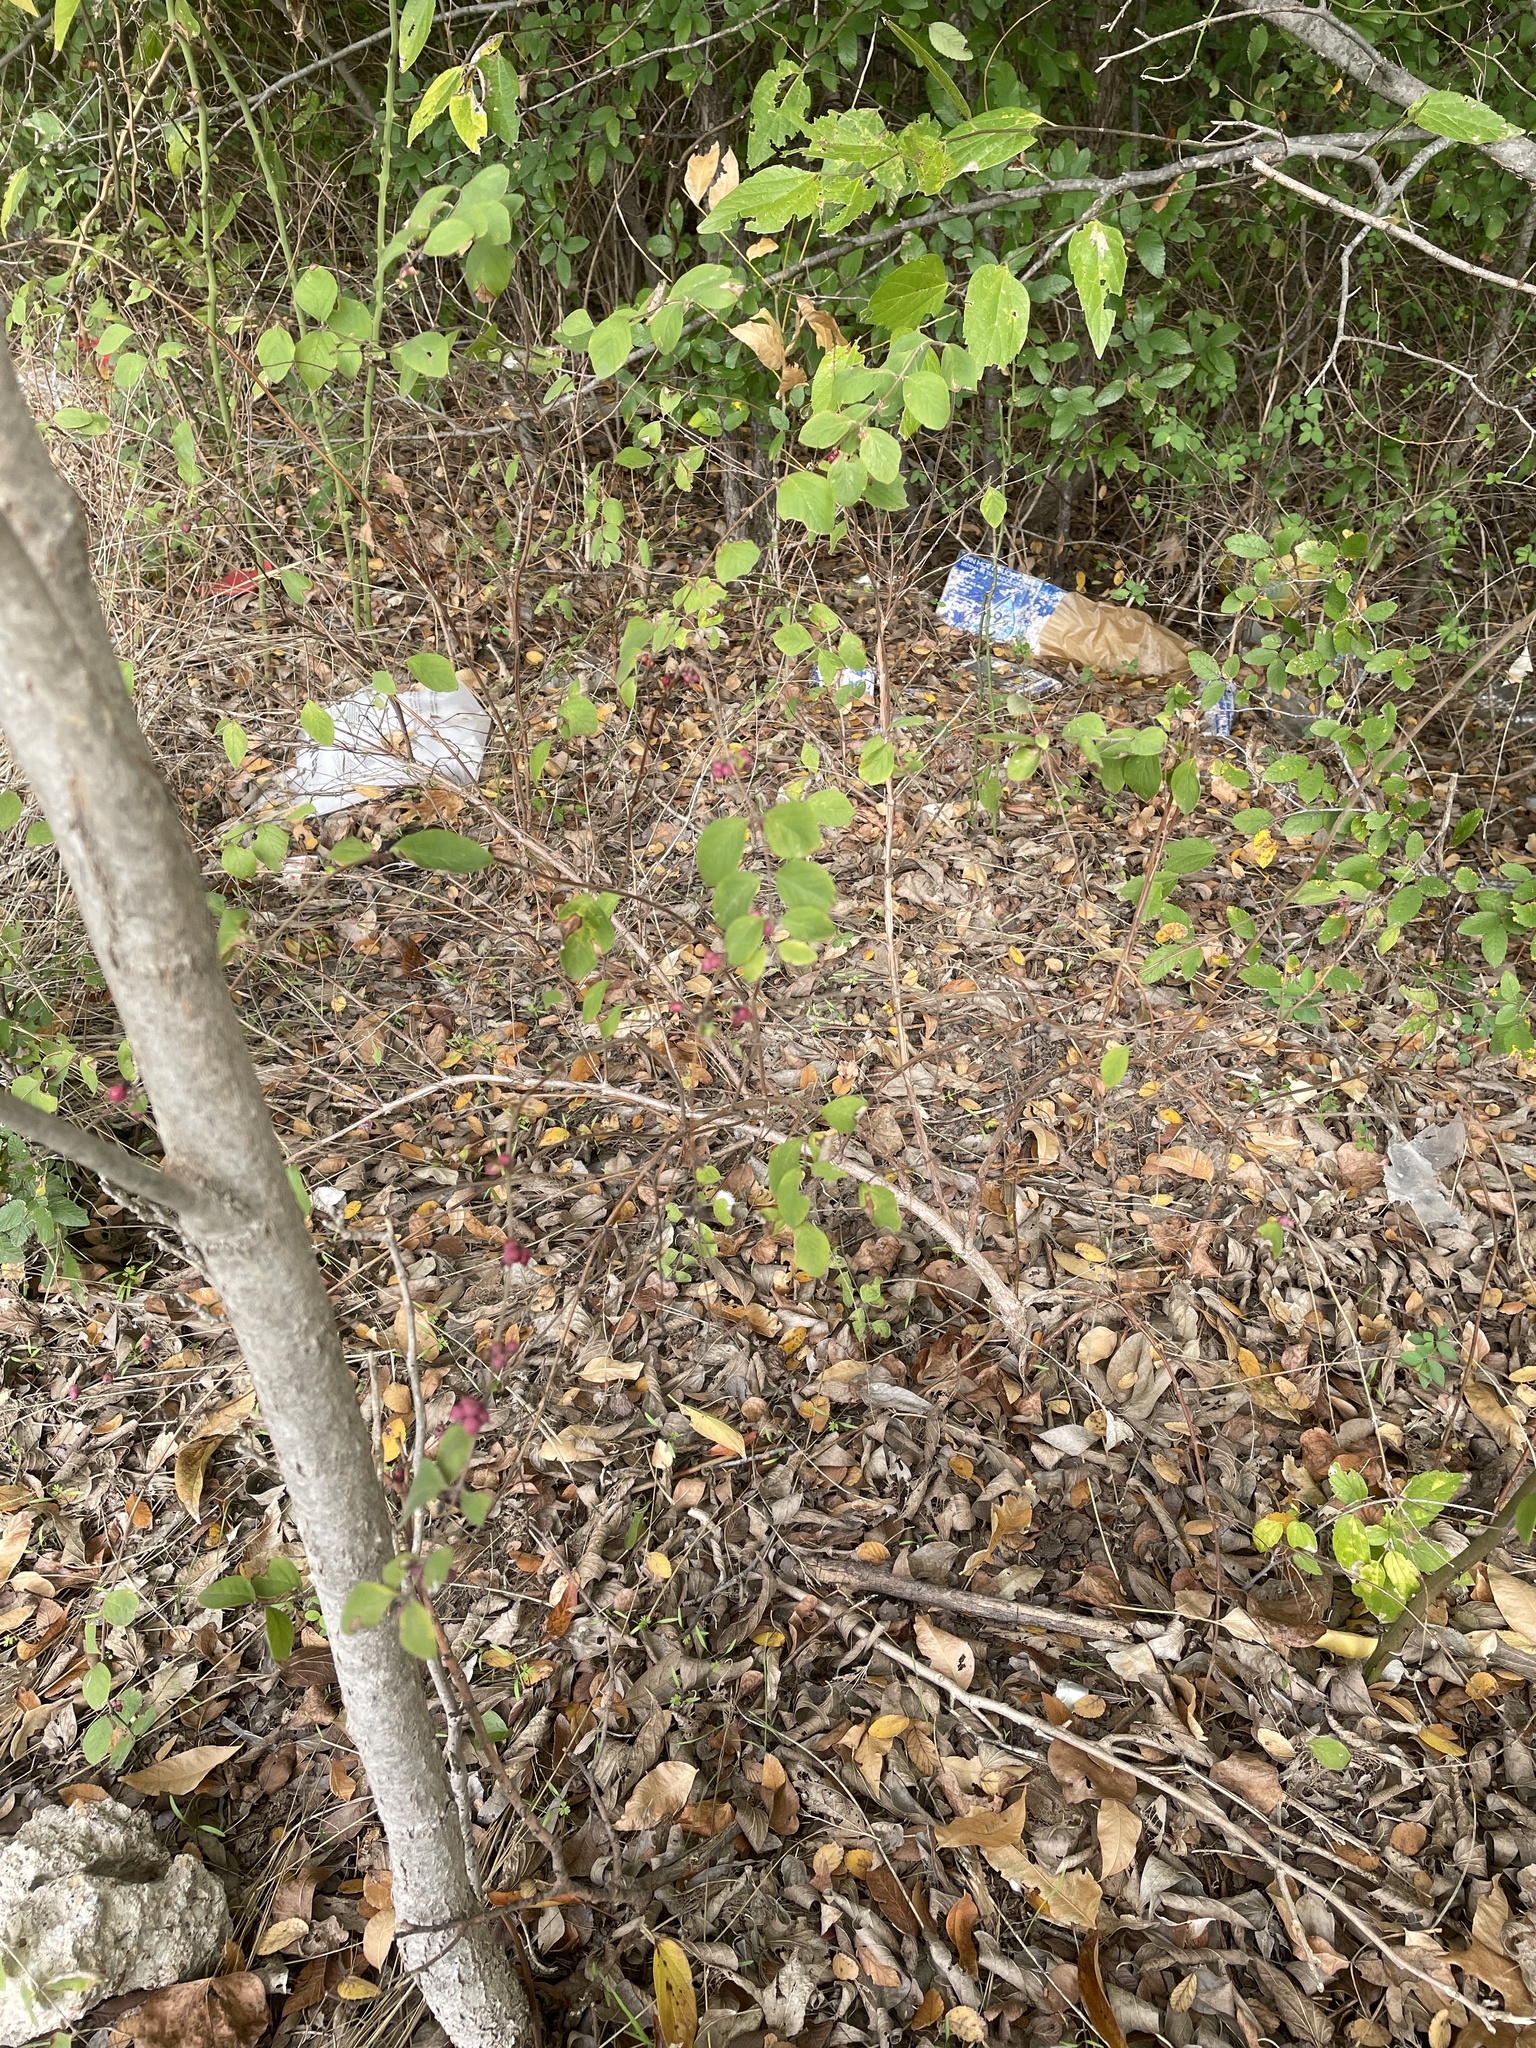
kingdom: Plantae
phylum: Tracheophyta
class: Magnoliopsida
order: Dipsacales
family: Caprifoliaceae
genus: Symphoricarpos
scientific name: Symphoricarpos orbiculatus
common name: Coralberry
